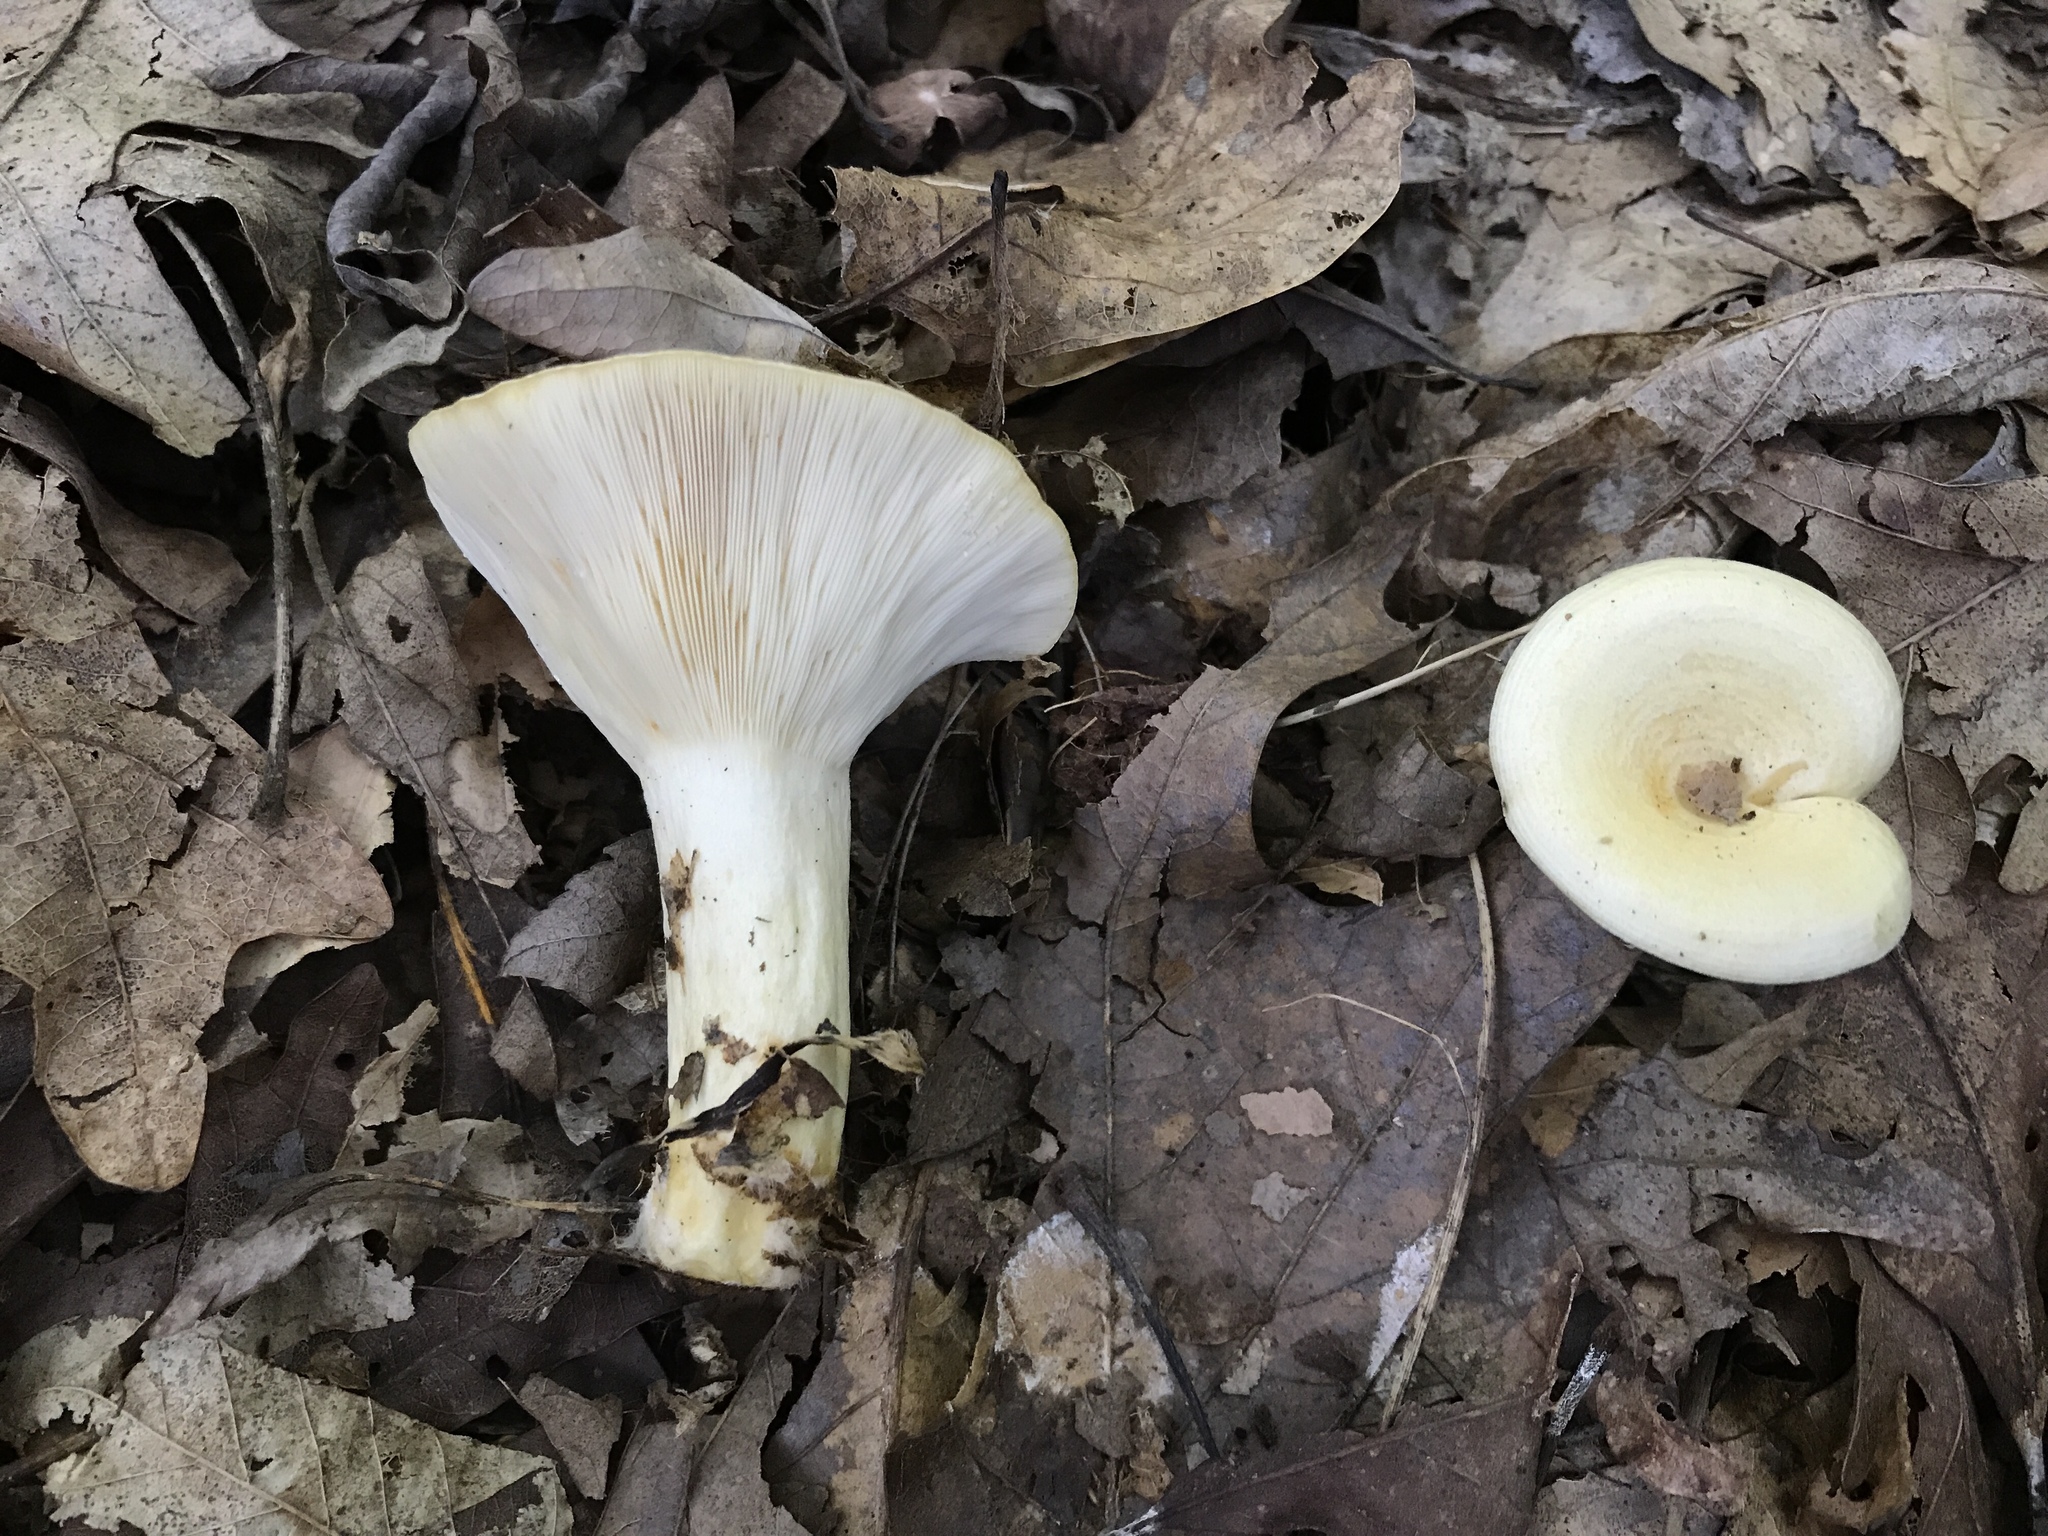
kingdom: Fungi
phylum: Basidiomycota
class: Agaricomycetes
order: Russulales
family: Russulaceae
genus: Lactarius
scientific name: Lactarius yazooensis
